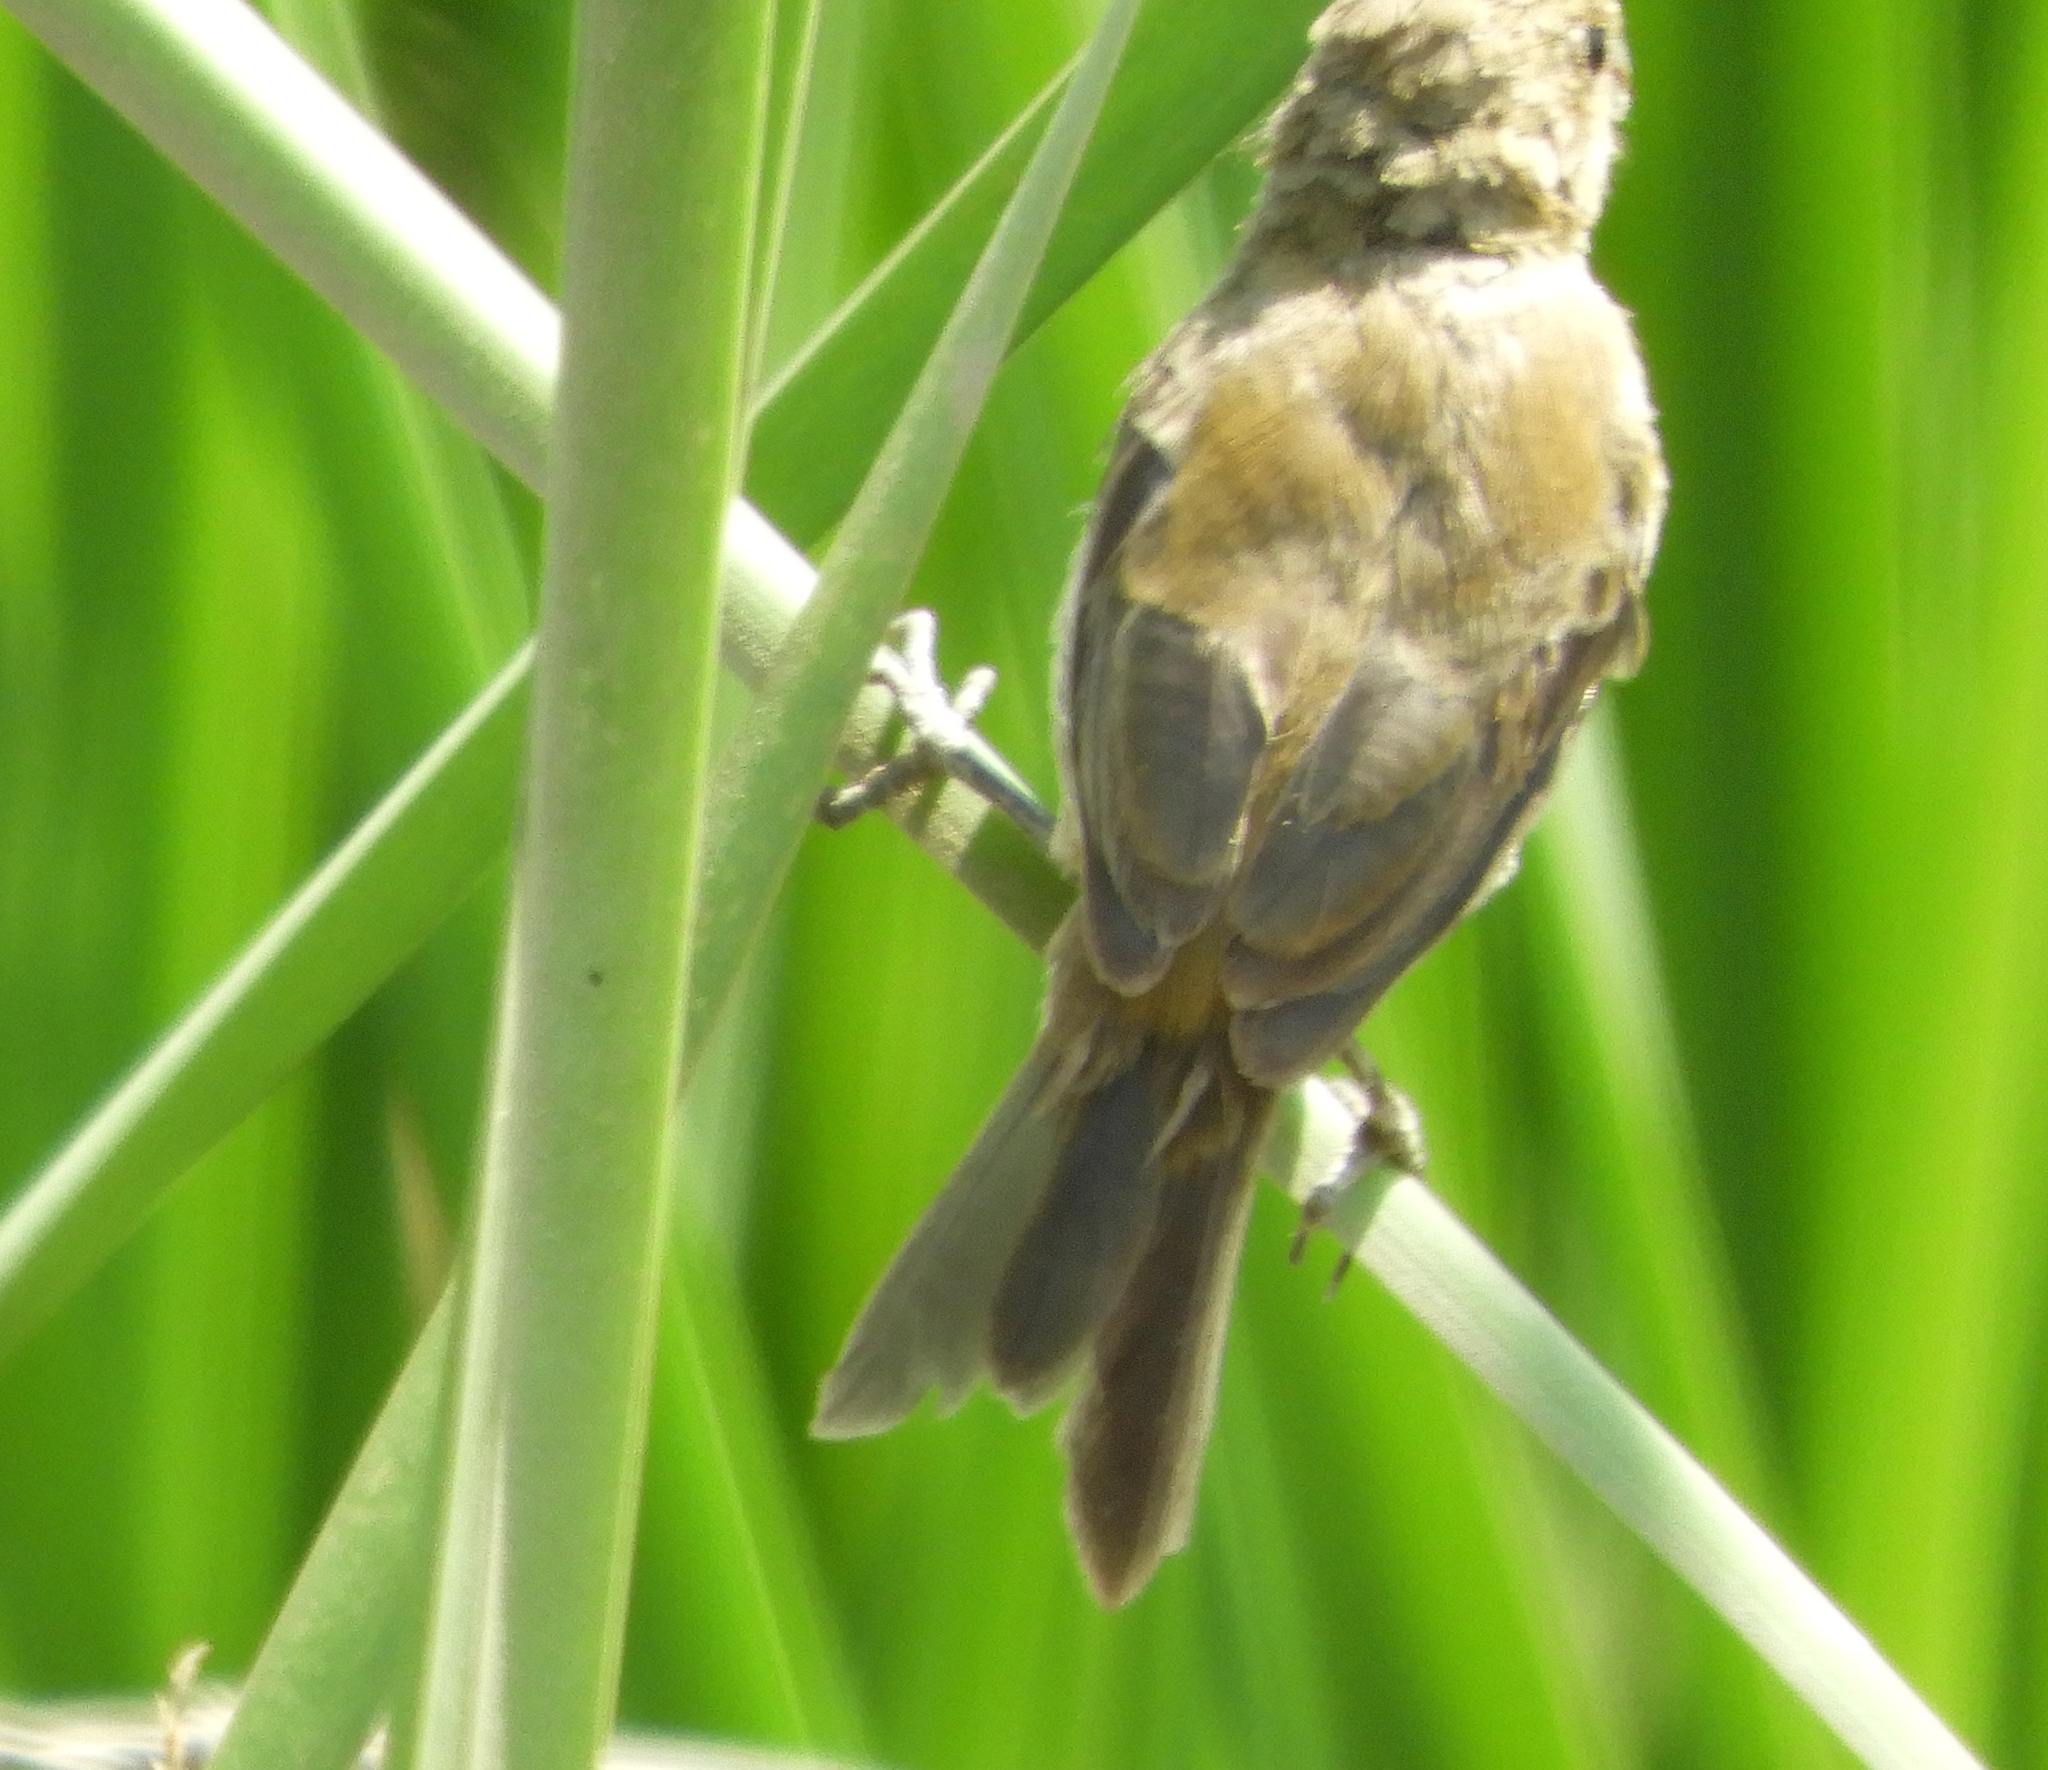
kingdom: Animalia
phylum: Chordata
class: Aves
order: Passeriformes
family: Thraupidae
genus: Sporophila
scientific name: Sporophila torqueola
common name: White-collared seedeater
